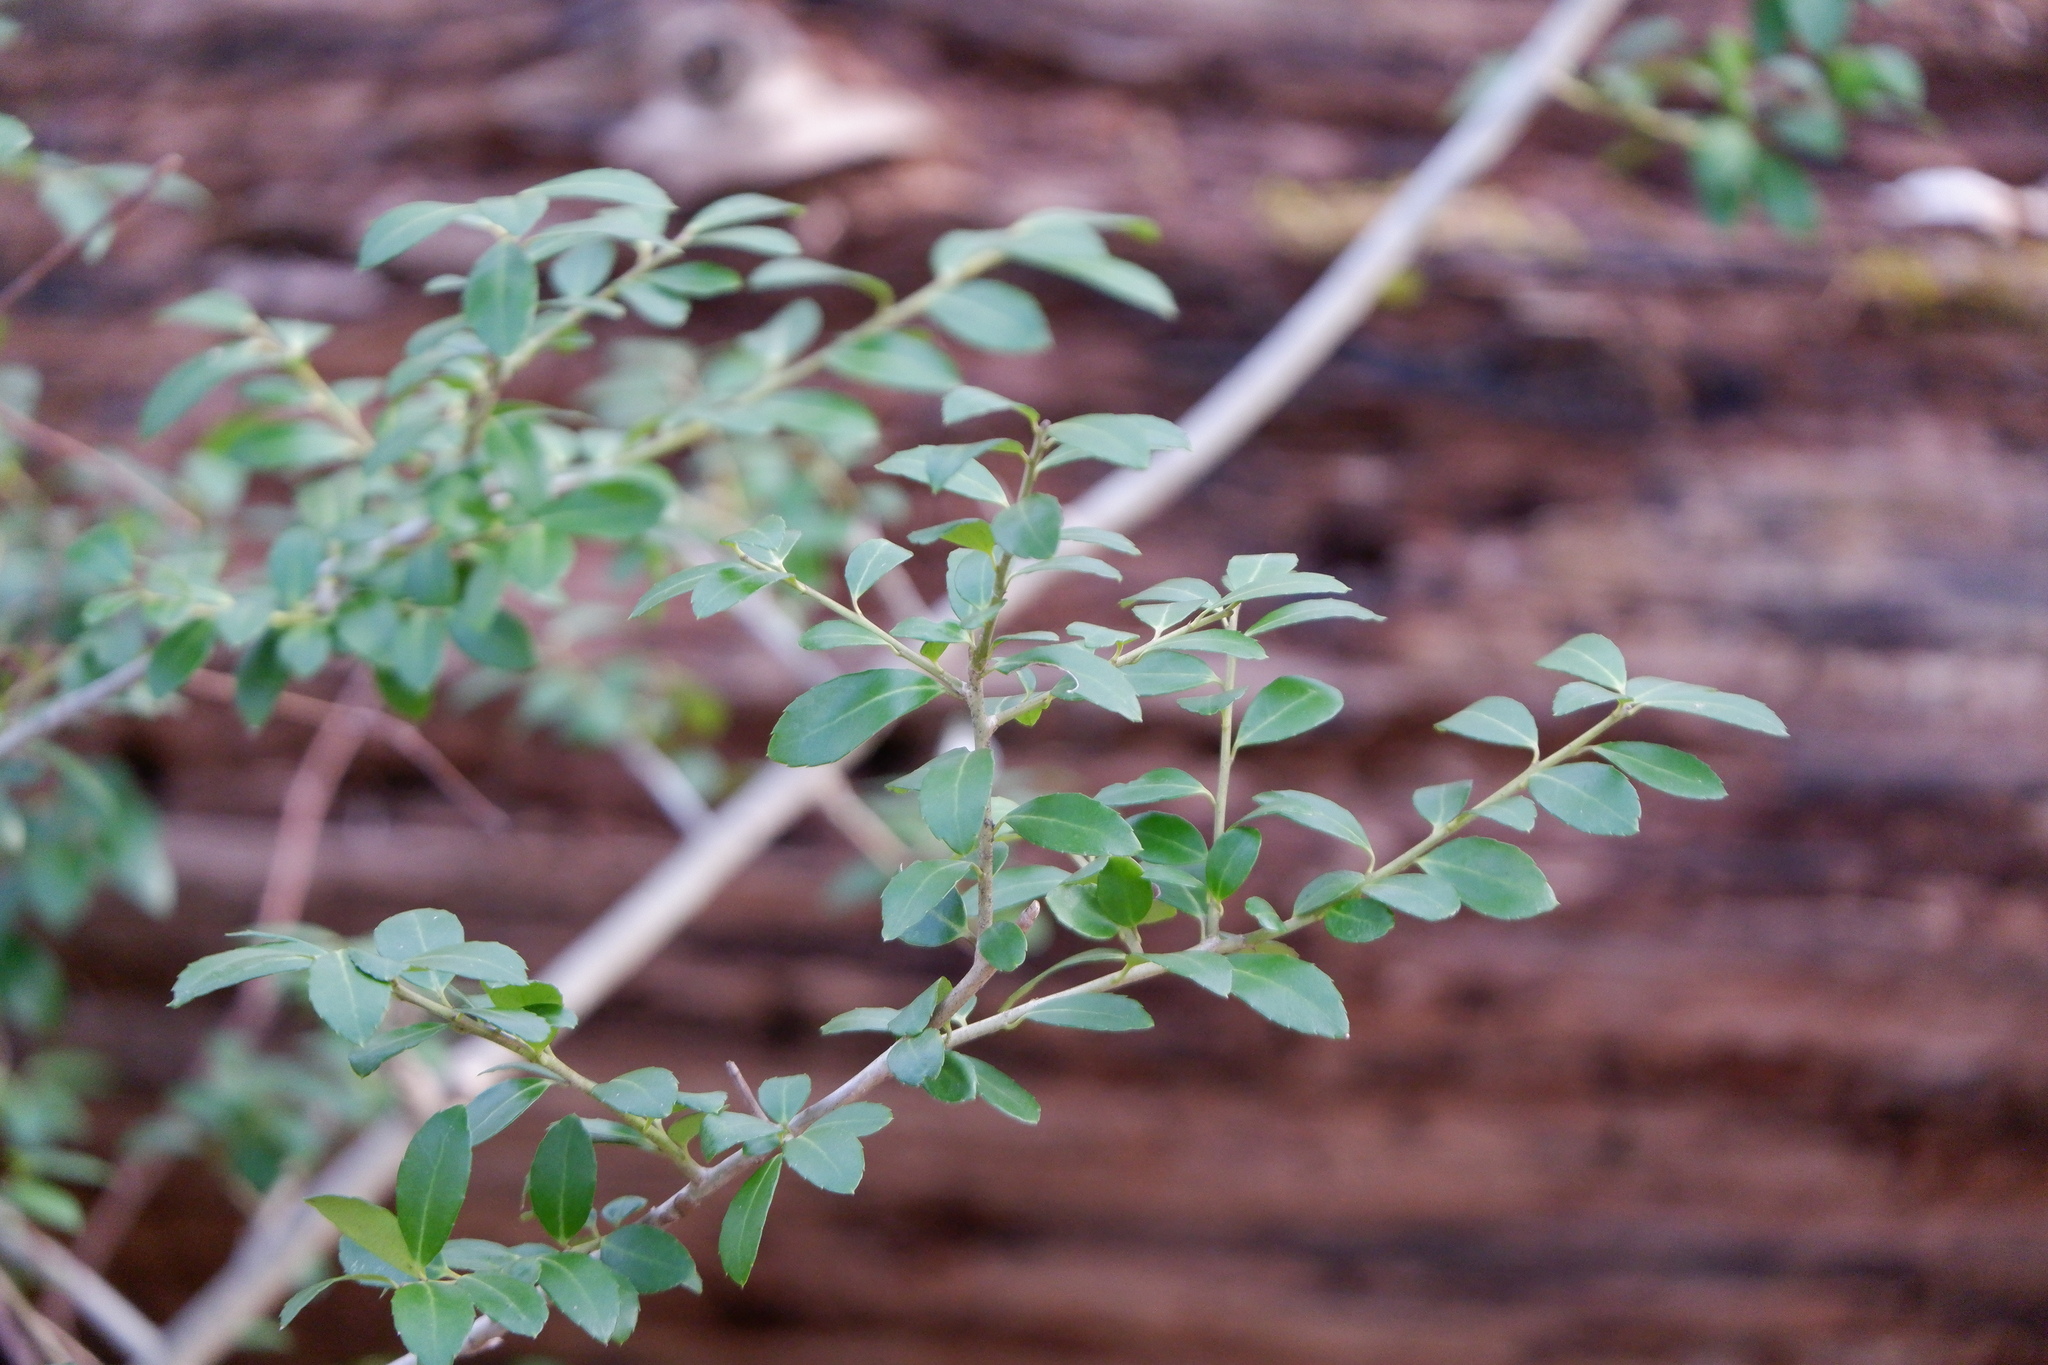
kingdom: Plantae
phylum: Tracheophyta
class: Magnoliopsida
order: Aquifoliales
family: Aquifoliaceae
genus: Ilex
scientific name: Ilex crenata
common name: Japanese holly
